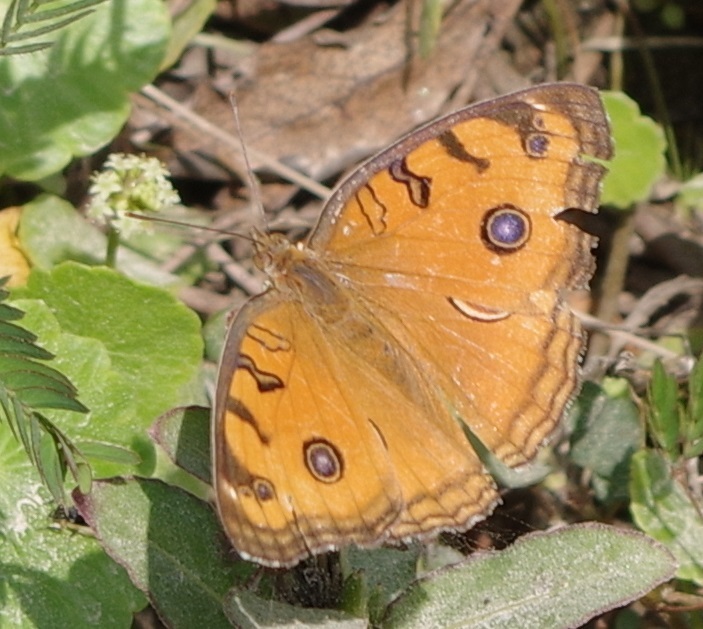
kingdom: Animalia
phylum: Arthropoda
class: Insecta
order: Lepidoptera
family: Nymphalidae
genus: Junonia
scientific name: Junonia almana
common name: Peacock pansy
